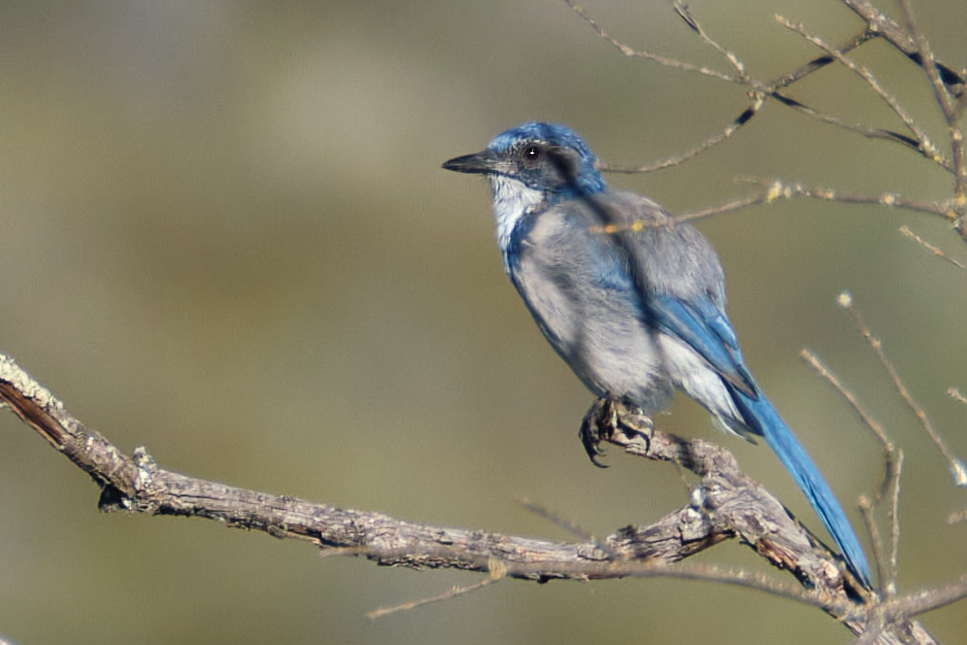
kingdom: Animalia
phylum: Chordata
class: Aves
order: Passeriformes
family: Corvidae
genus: Aphelocoma
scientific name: Aphelocoma californica
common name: California scrub-jay
